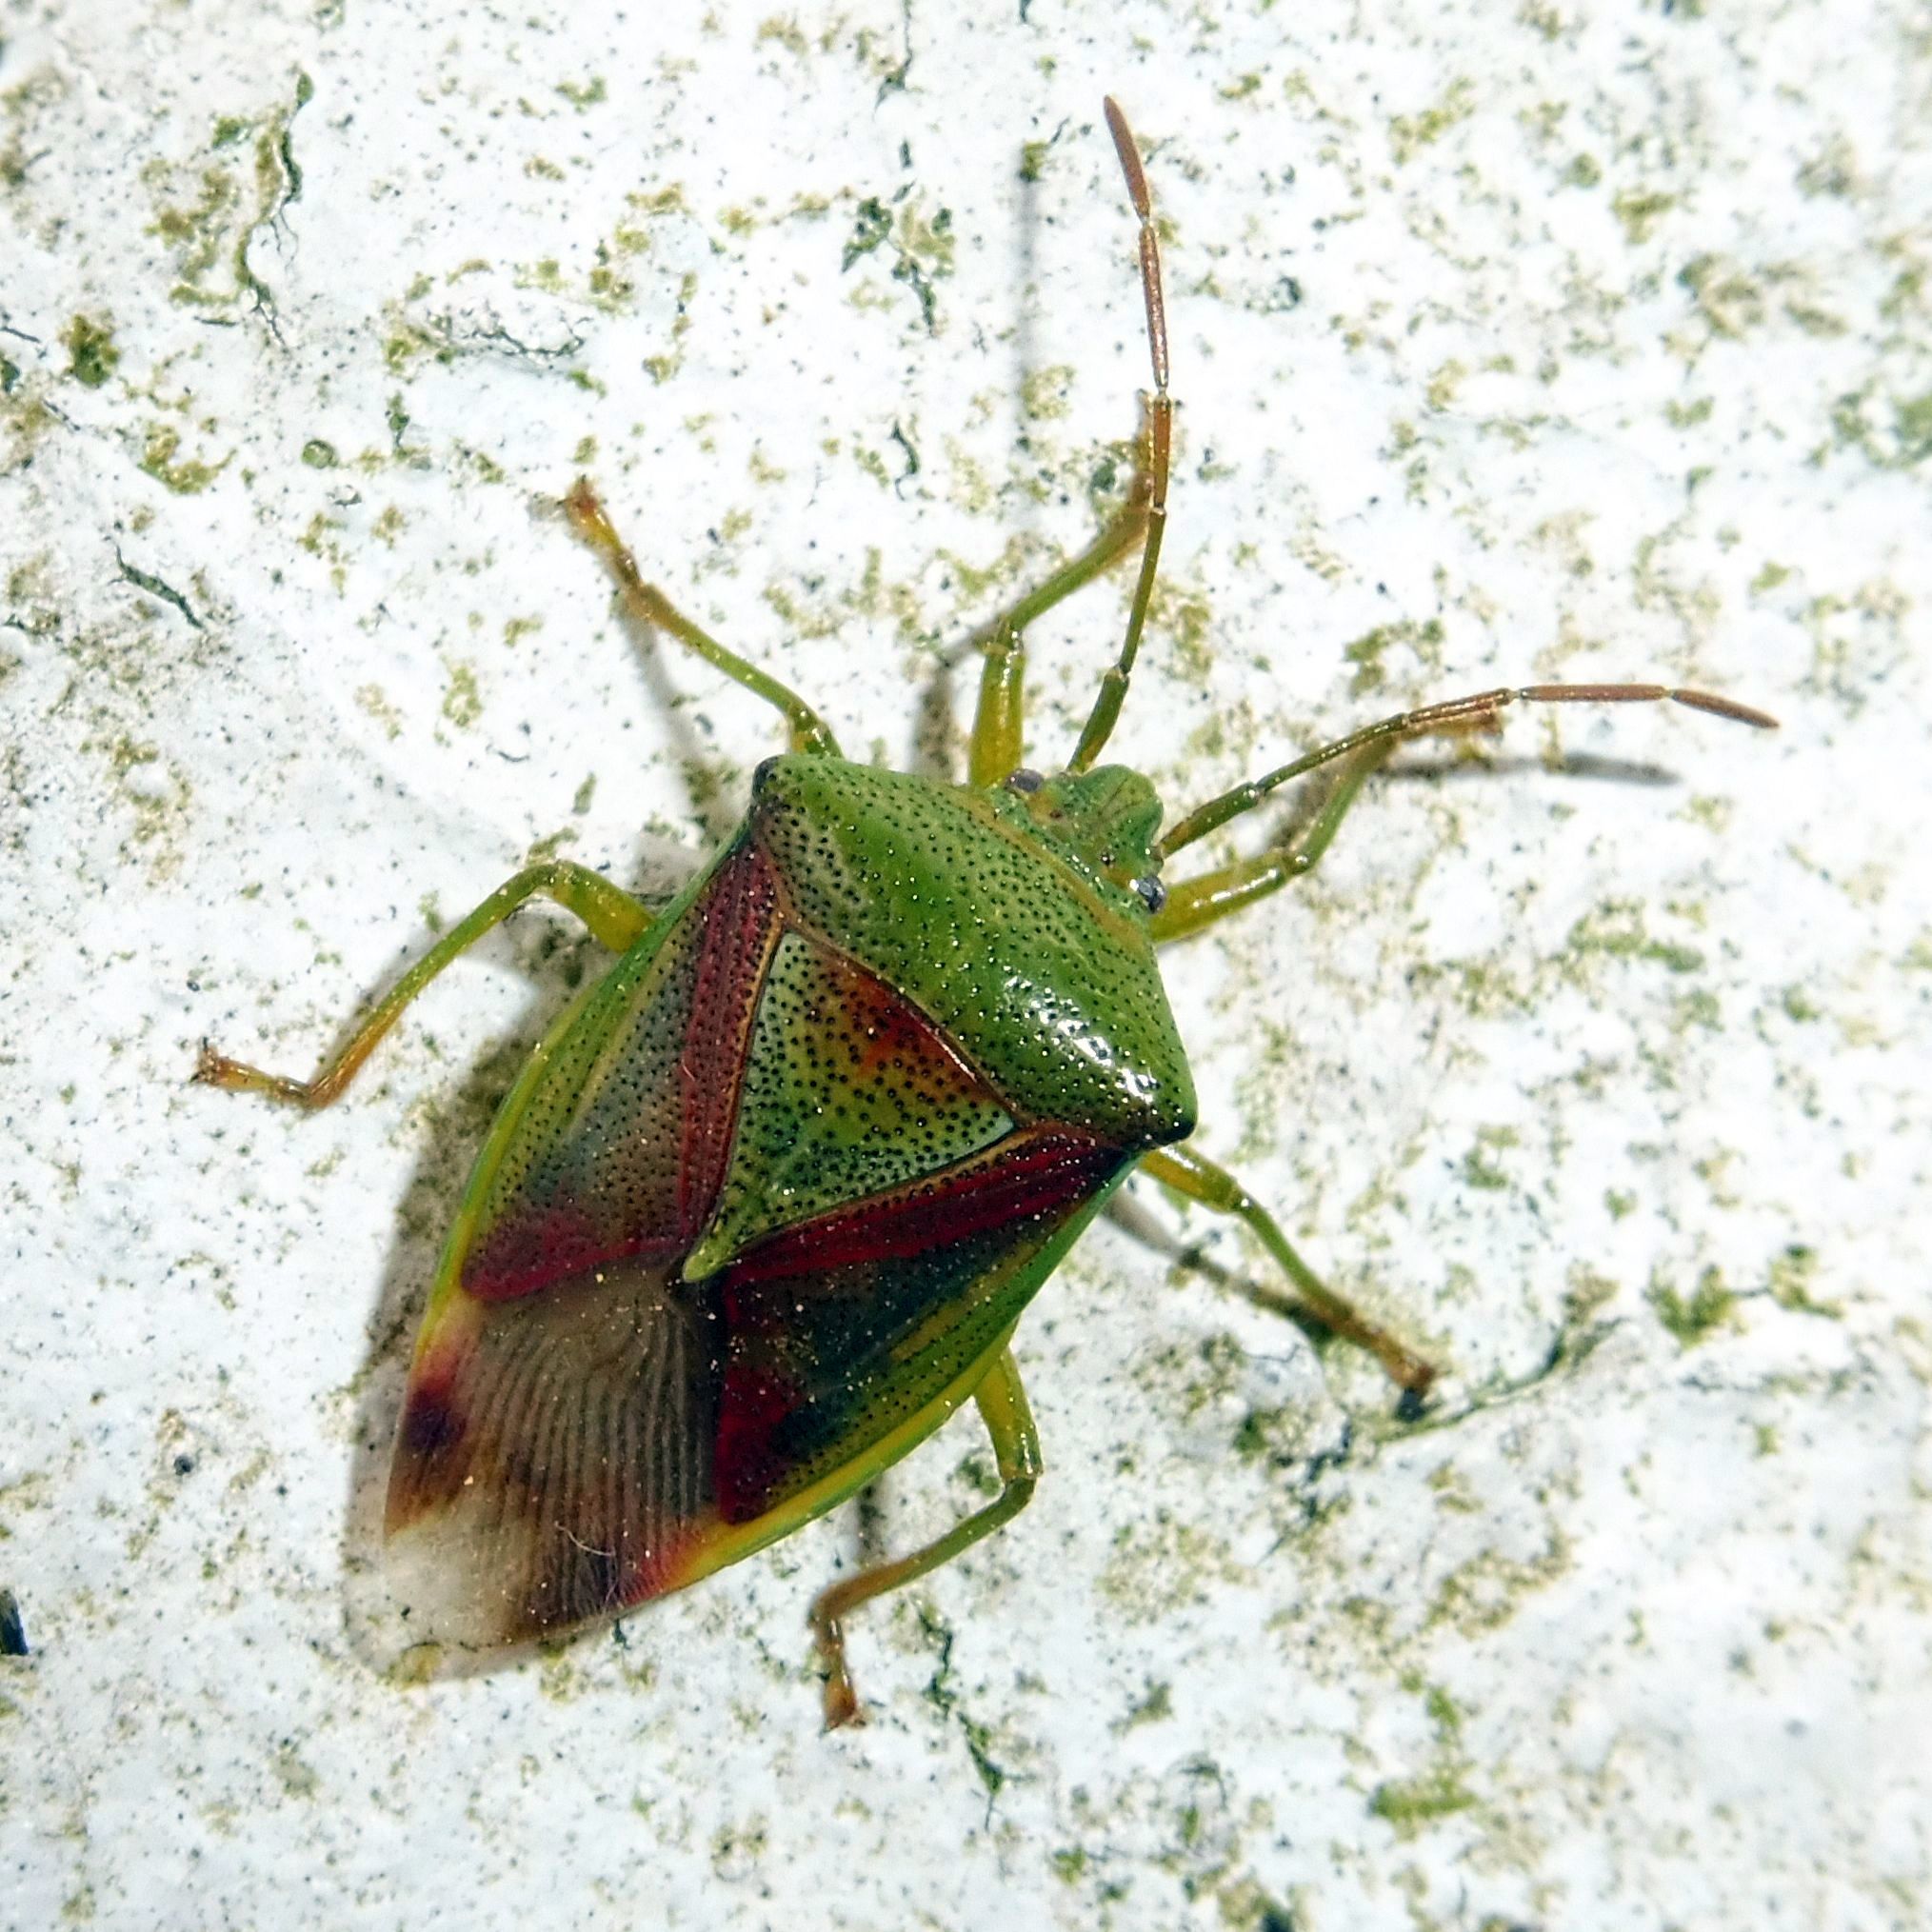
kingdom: Animalia
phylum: Arthropoda
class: Insecta
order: Hemiptera
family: Acanthosomatidae
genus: Elasmostethus
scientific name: Elasmostethus interstinctus
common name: Birch shieldbug
